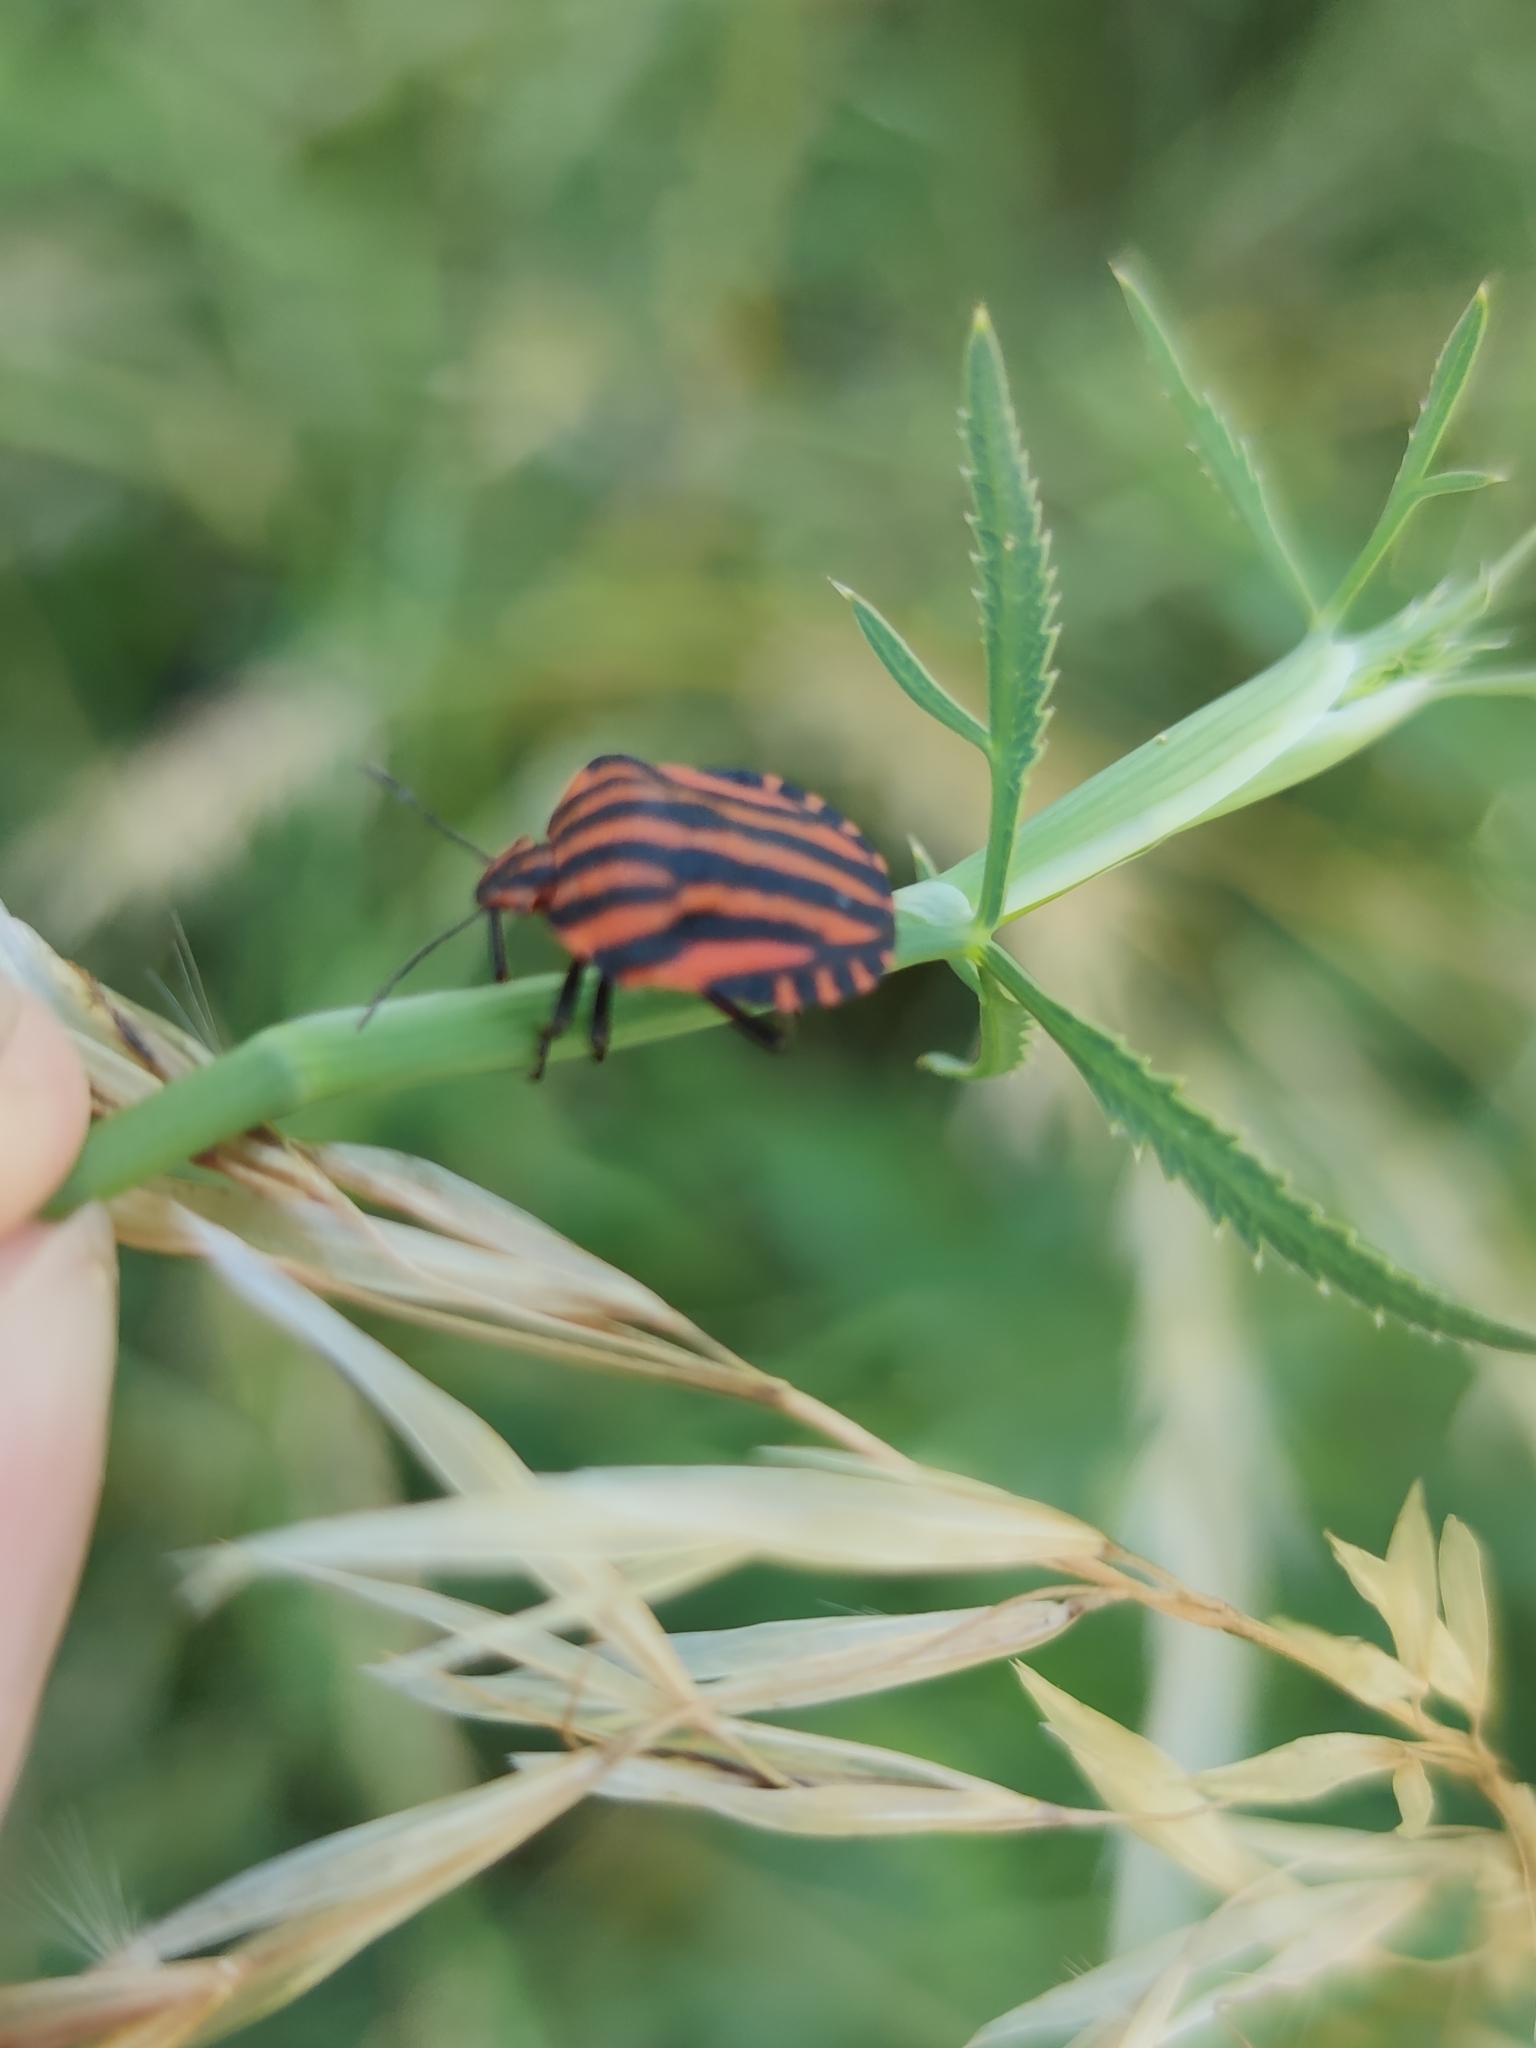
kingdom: Animalia
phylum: Arthropoda
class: Insecta
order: Hemiptera
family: Pentatomidae
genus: Graphosoma
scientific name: Graphosoma italicum
